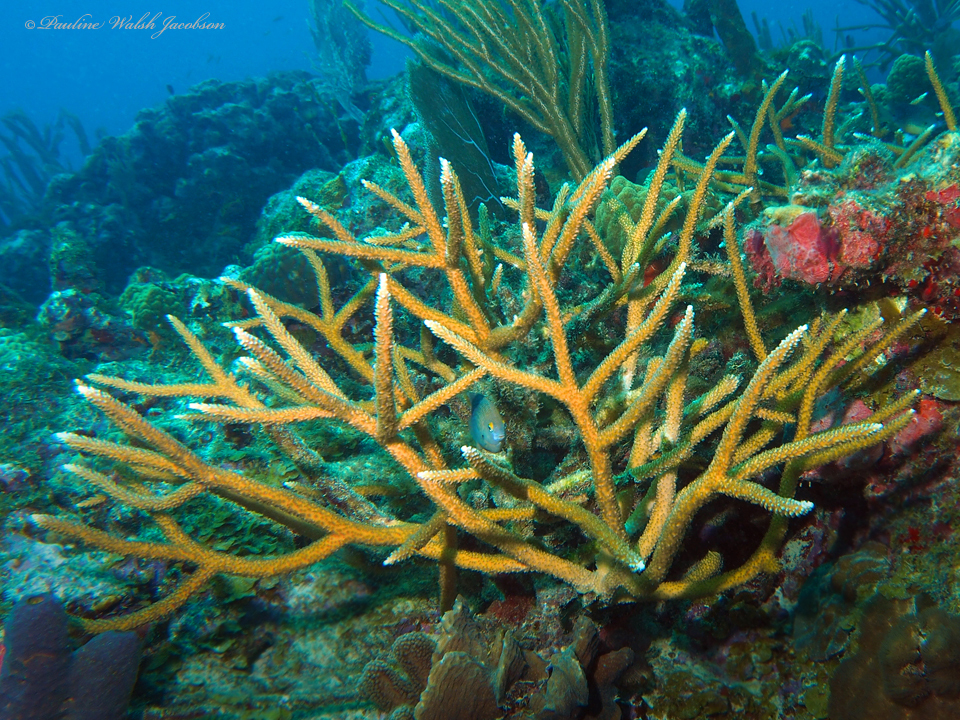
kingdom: Animalia
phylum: Cnidaria
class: Anthozoa
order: Scleractinia
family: Acroporidae
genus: Acropora
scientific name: Acropora cervicornis
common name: Staghorn coral
